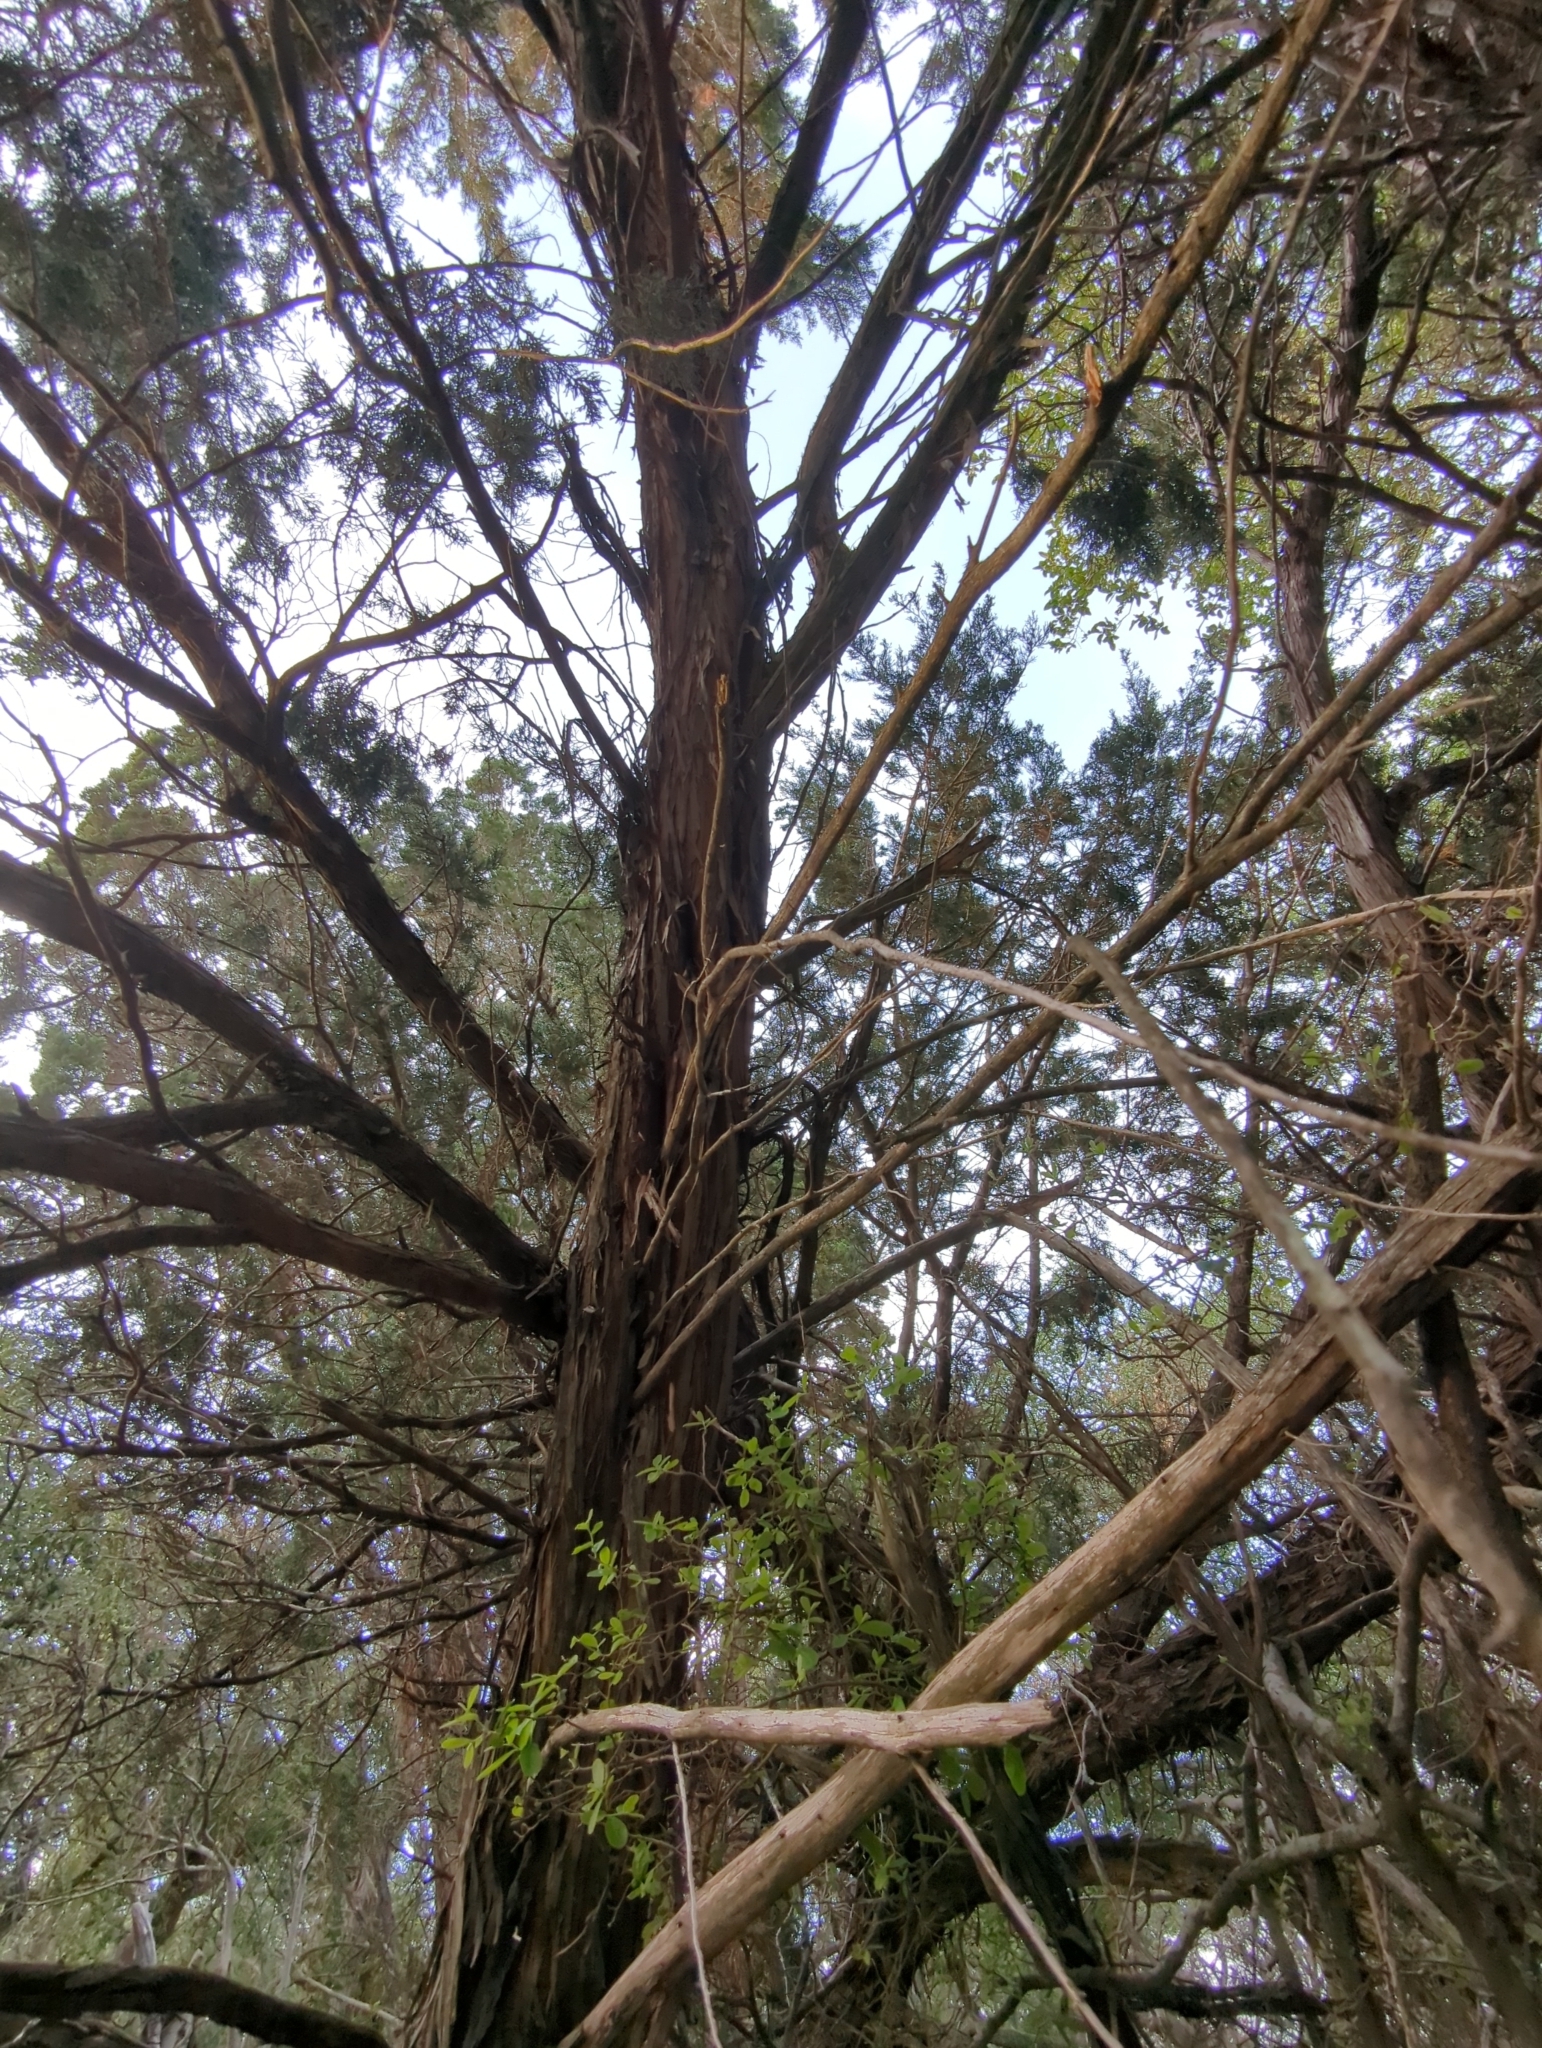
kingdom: Plantae
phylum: Tracheophyta
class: Pinopsida
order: Pinales
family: Cupressaceae
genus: Juniperus
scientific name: Juniperus ashei
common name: Mexican juniper
